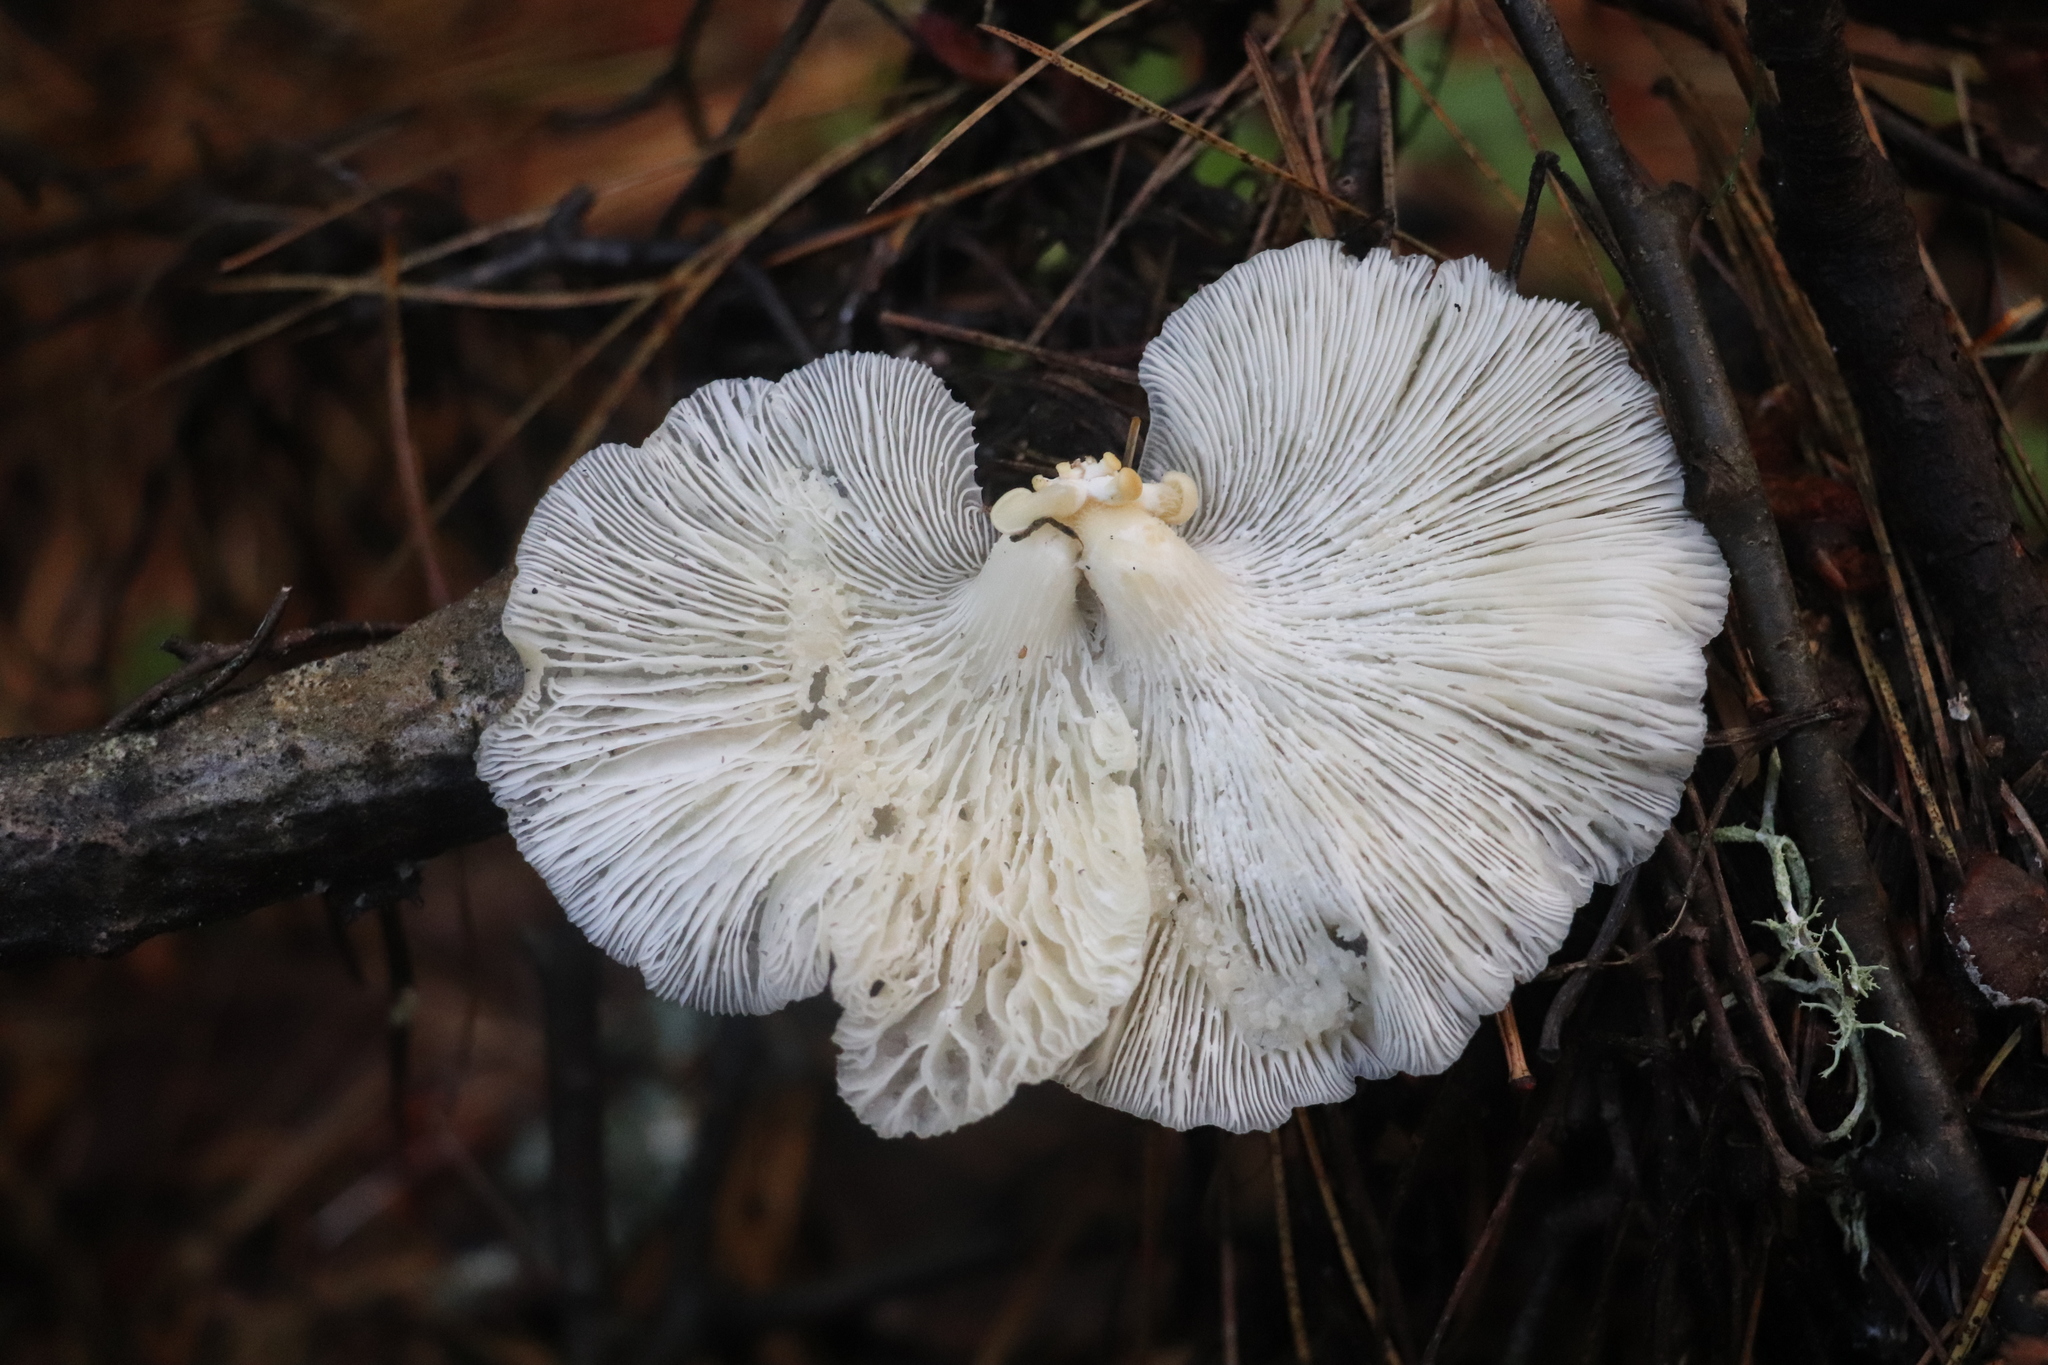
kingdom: Fungi
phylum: Basidiomycota
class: Agaricomycetes
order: Agaricales
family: Pleurotaceae
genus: Pleurotus
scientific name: Pleurotus pulmonarius
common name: Pale oyster
